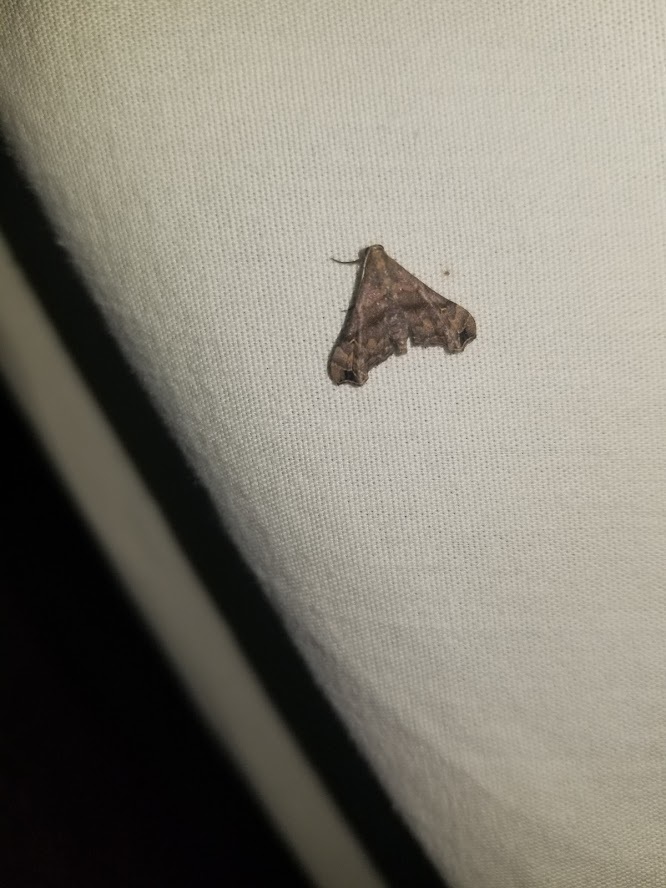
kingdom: Animalia
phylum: Arthropoda
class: Insecta
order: Lepidoptera
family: Erebidae
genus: Palthis
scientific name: Palthis asopialis
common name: Faint-spotted palthis moth
